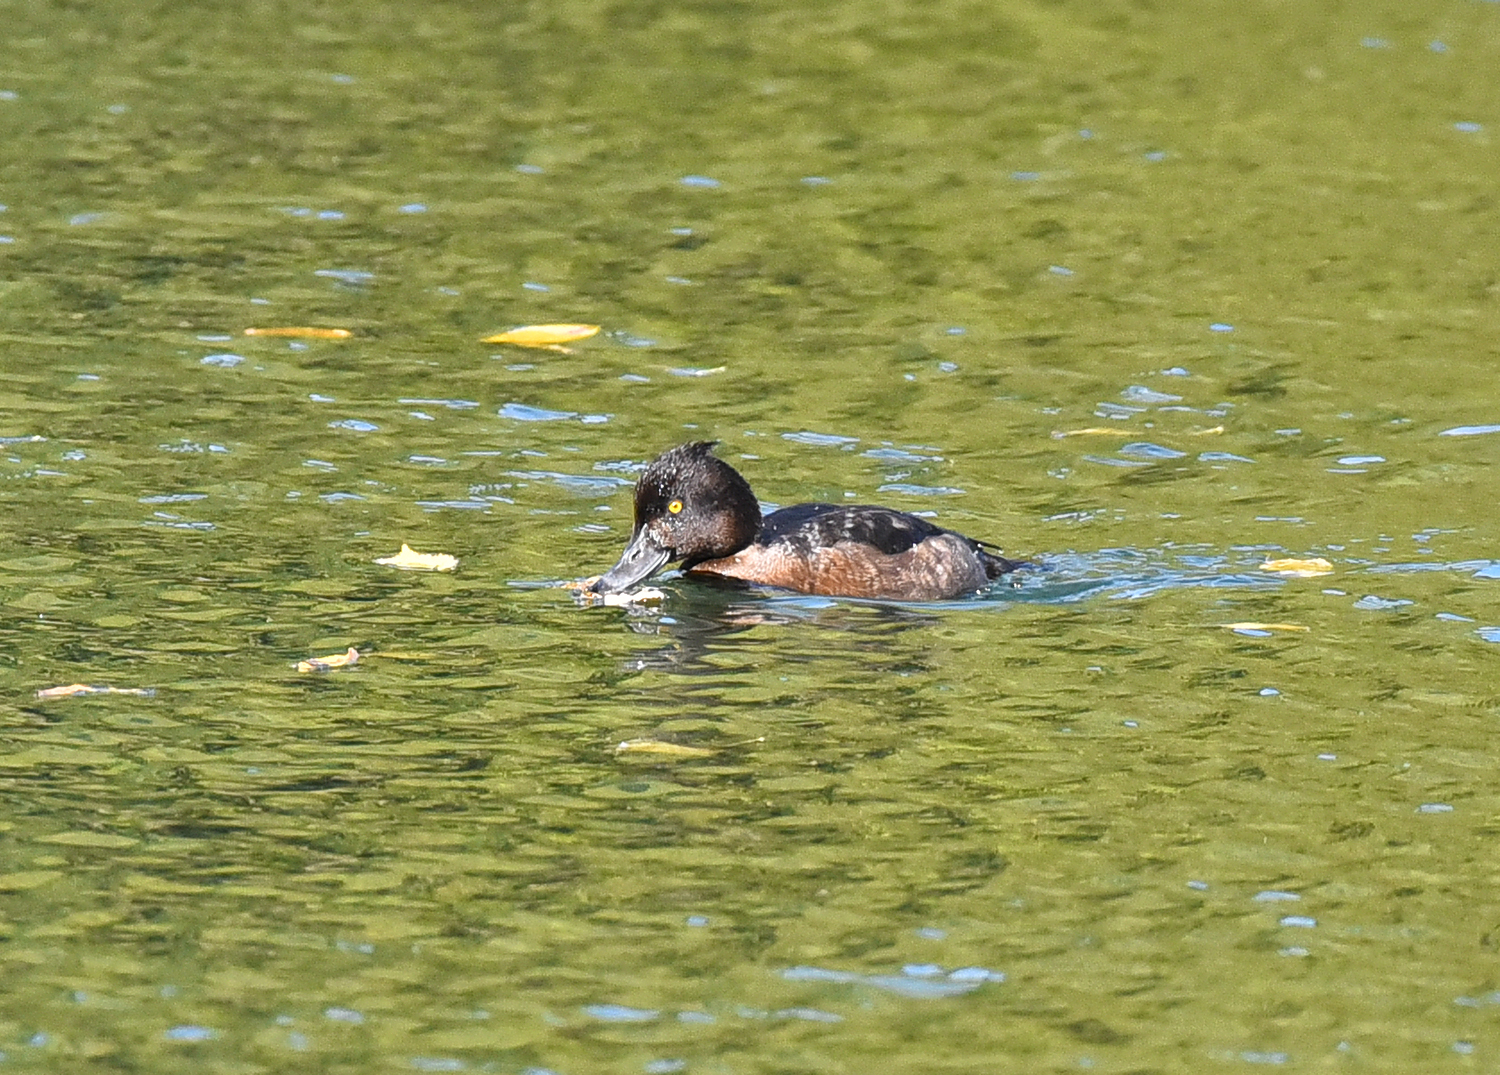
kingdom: Animalia
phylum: Chordata
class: Aves
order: Anseriformes
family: Anatidae
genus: Aythya
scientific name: Aythya fuligula
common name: Tufted duck
